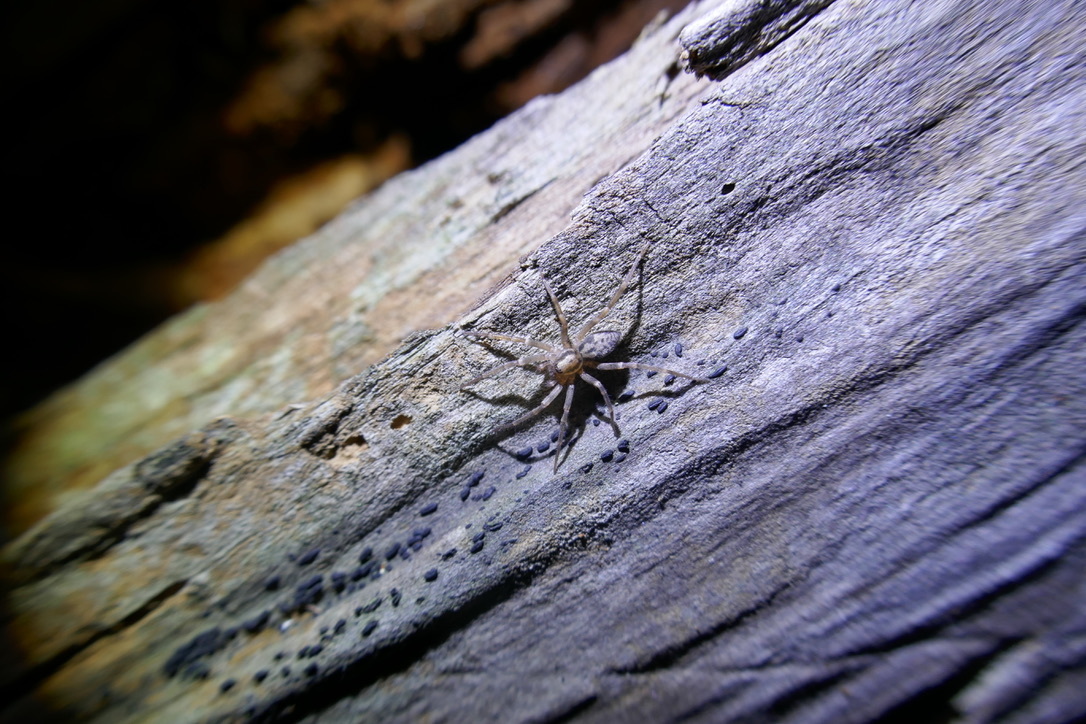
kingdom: Animalia
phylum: Arthropoda
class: Arachnida
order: Araneae
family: Liocranidae
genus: Liocranum
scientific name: Liocranum rupicola
